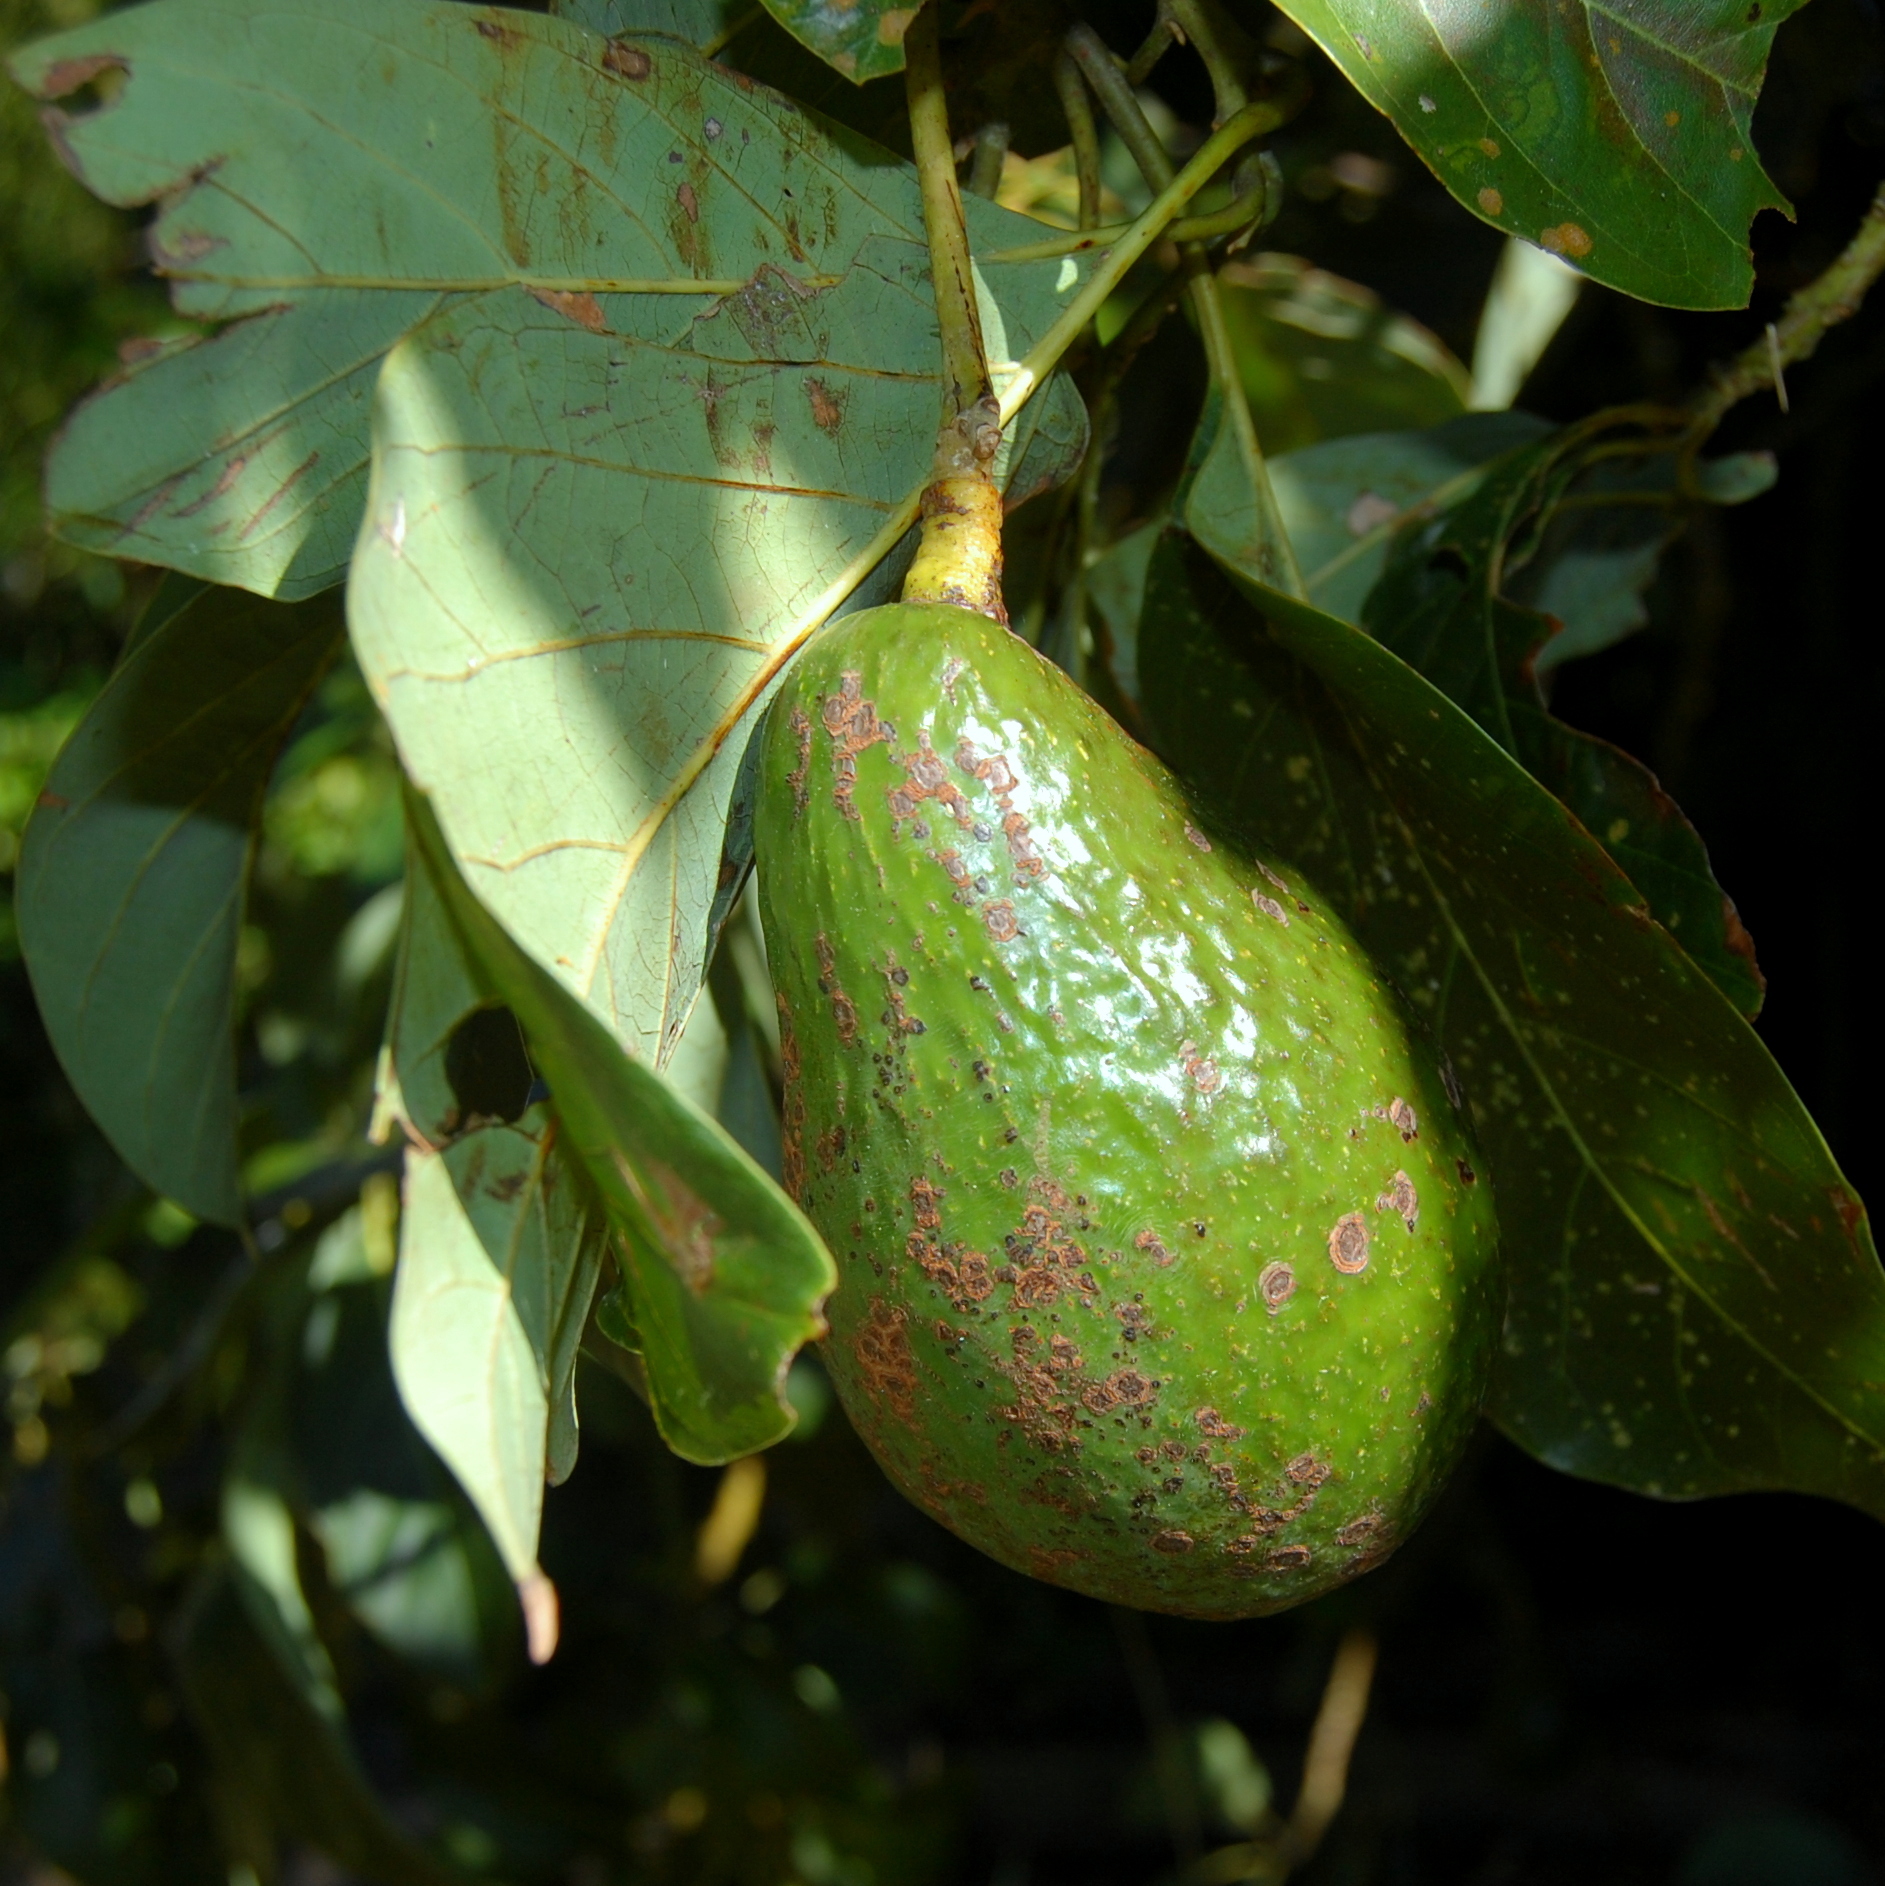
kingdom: Plantae
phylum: Tracheophyta
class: Magnoliopsida
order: Laurales
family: Lauraceae
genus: Persea
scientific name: Persea americana
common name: Avocado
